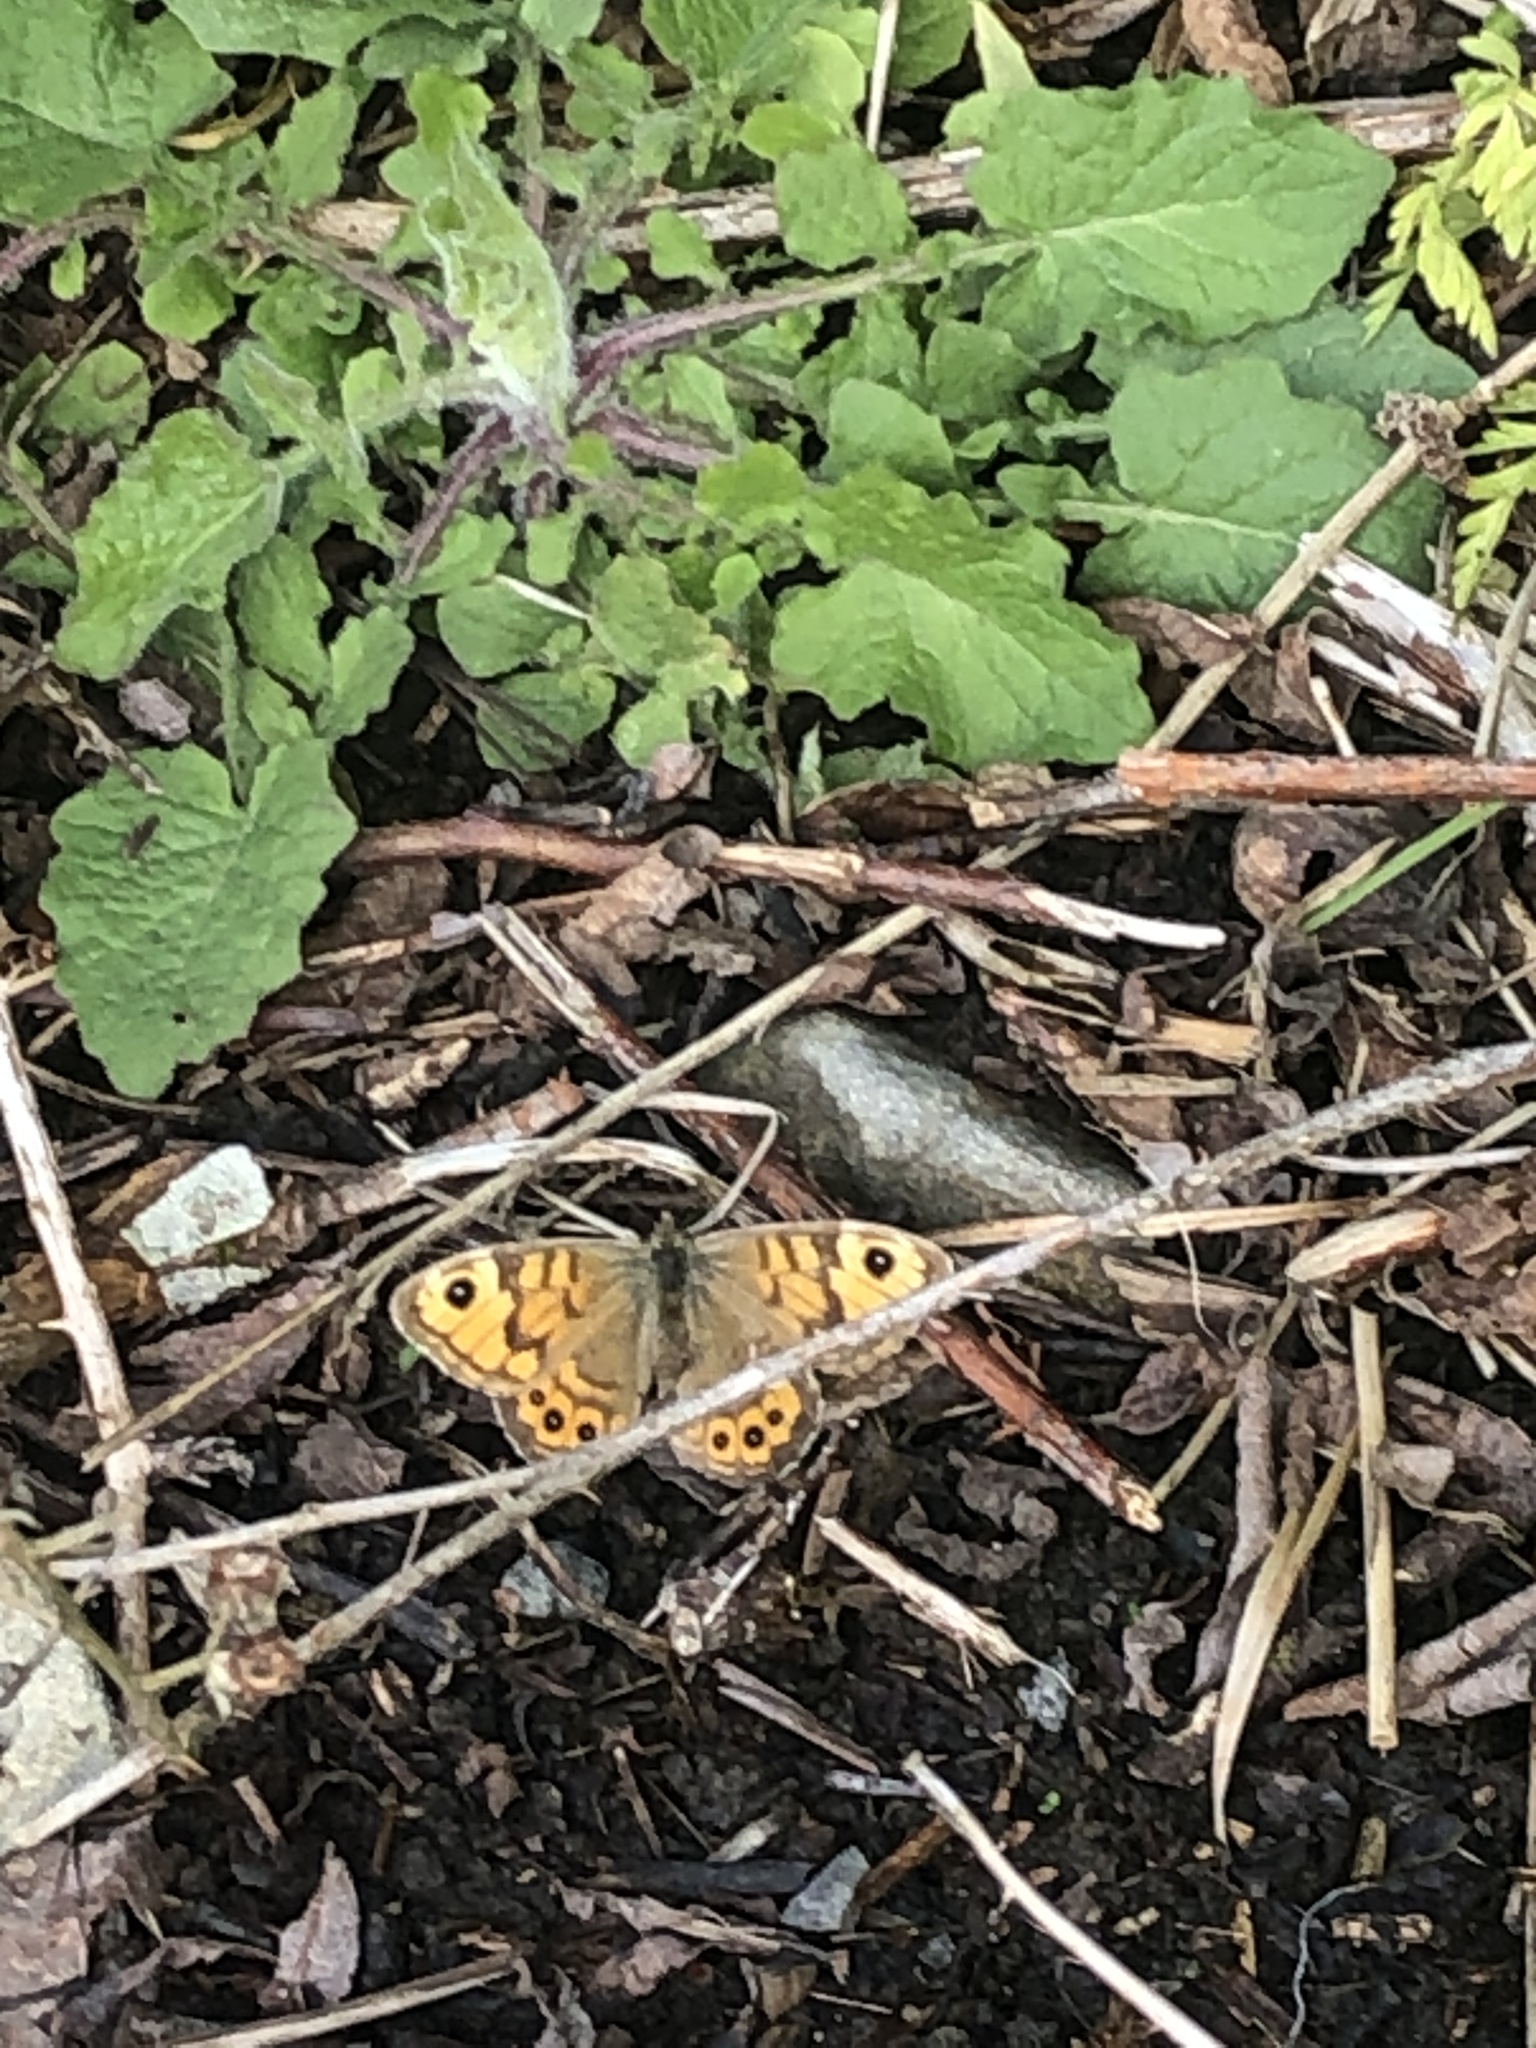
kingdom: Animalia
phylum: Arthropoda
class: Insecta
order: Lepidoptera
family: Nymphalidae
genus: Pararge
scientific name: Pararge Lasiommata megera
